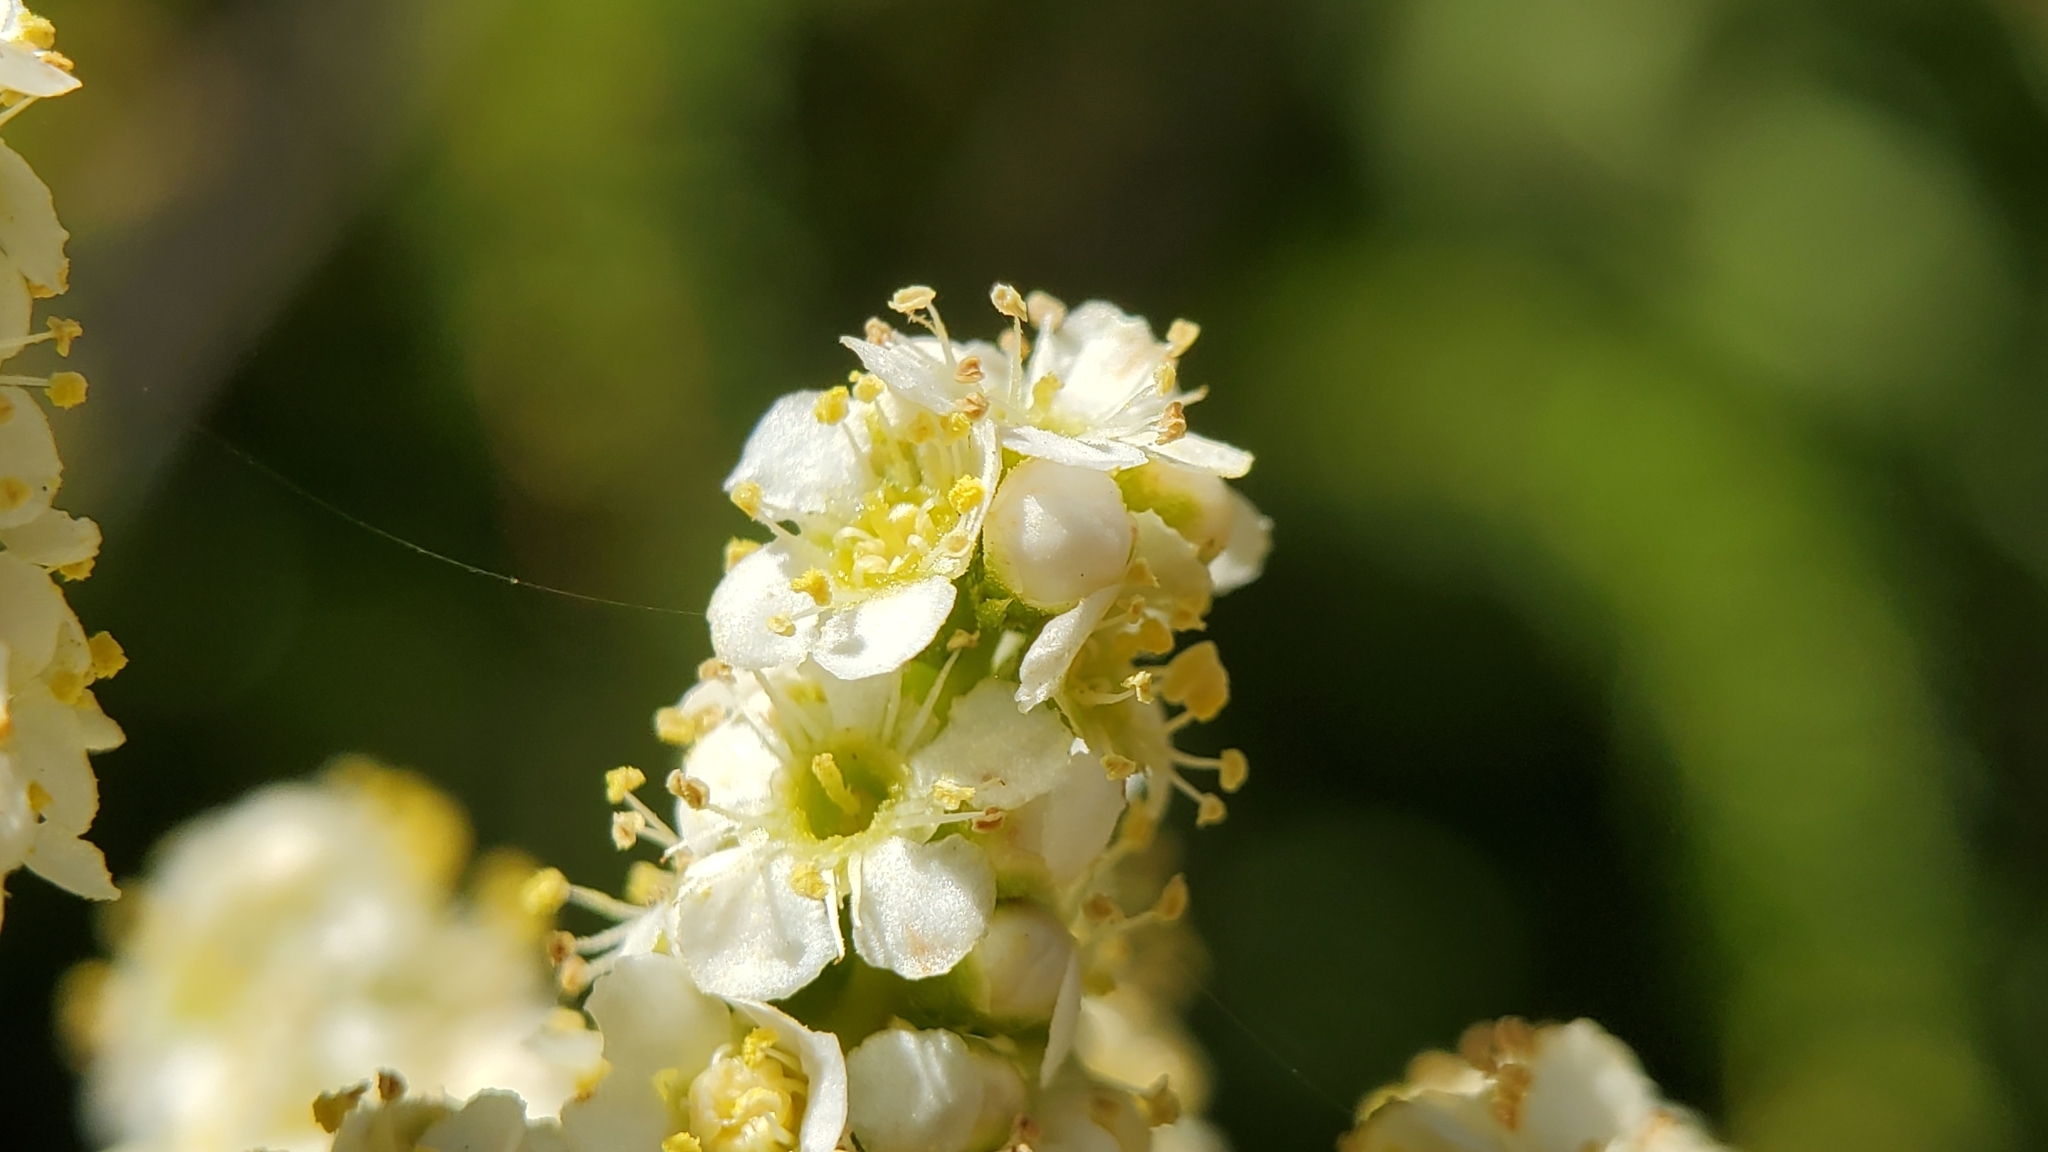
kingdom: Plantae
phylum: Tracheophyta
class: Magnoliopsida
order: Rosales
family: Rosaceae
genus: Adenostoma
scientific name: Adenostoma fasciculatum
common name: Chamise
